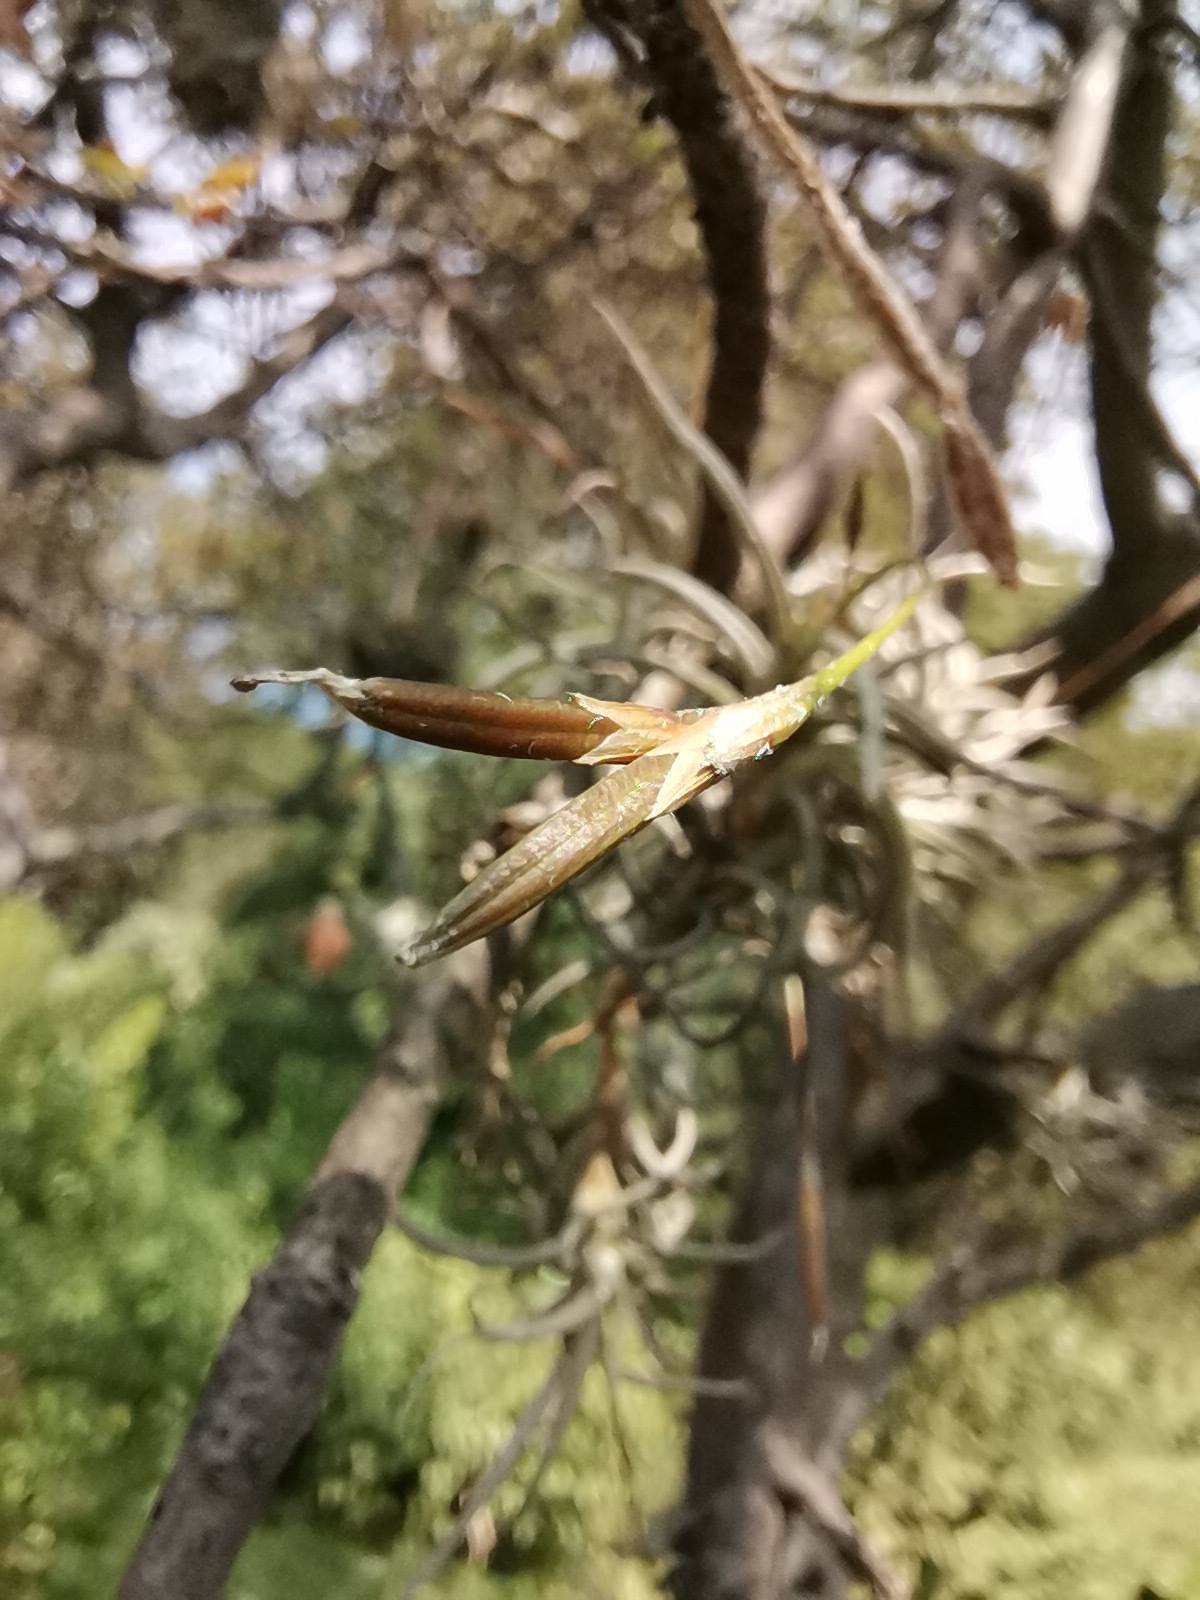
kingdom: Plantae
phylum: Tracheophyta
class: Liliopsida
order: Poales
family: Bromeliaceae
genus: Tillandsia
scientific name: Tillandsia recurvata
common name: Small ballmoss
